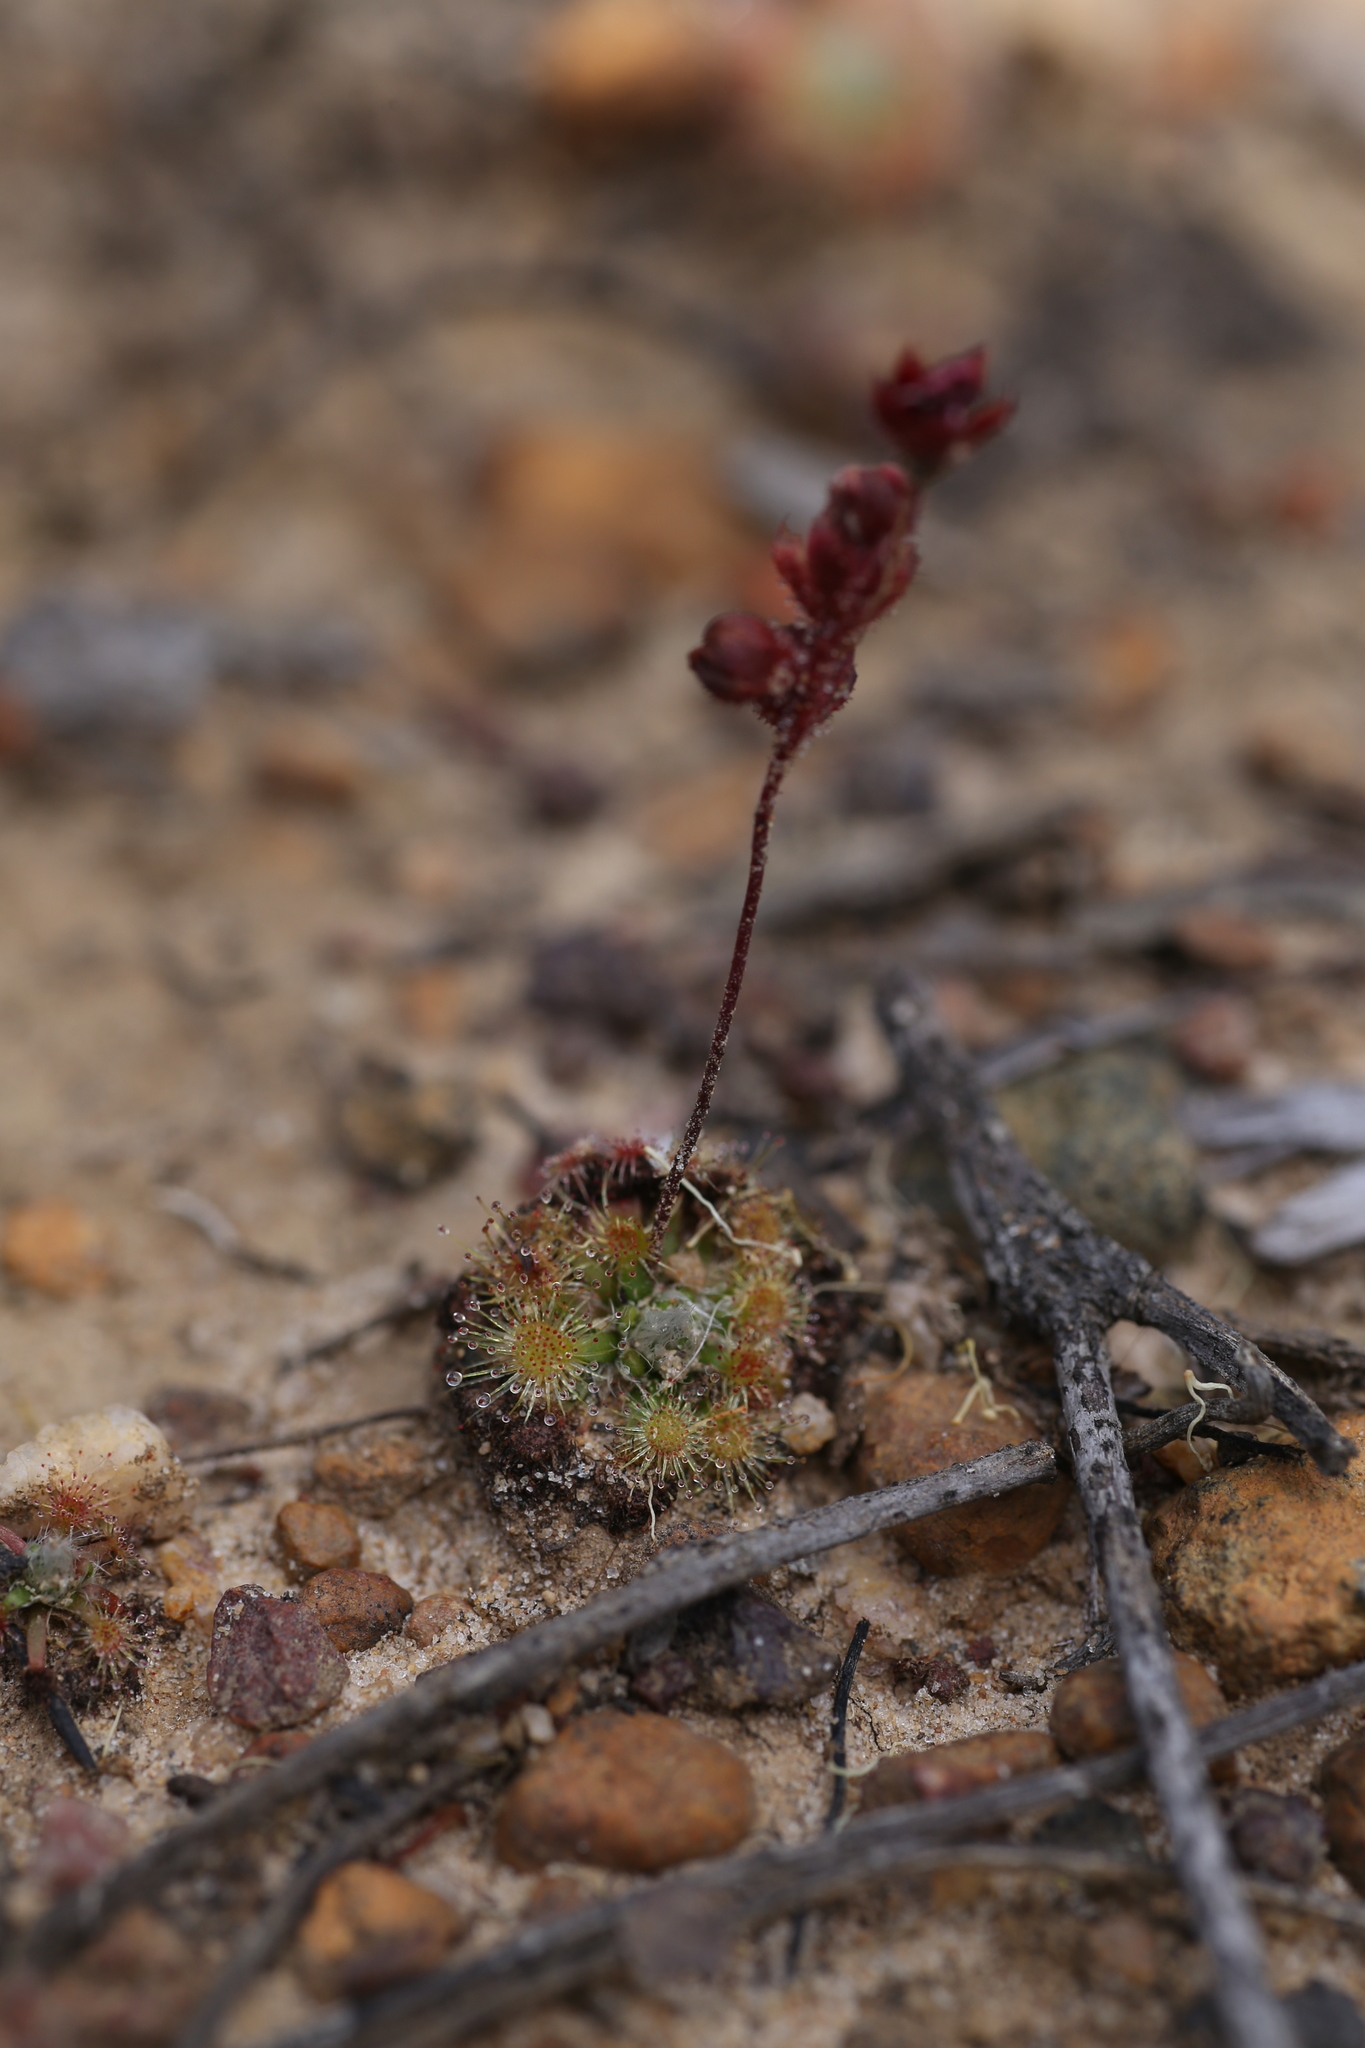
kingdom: Plantae
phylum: Tracheophyta
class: Magnoliopsida
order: Caryophyllales
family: Droseraceae
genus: Drosera
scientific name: Drosera platystigma
